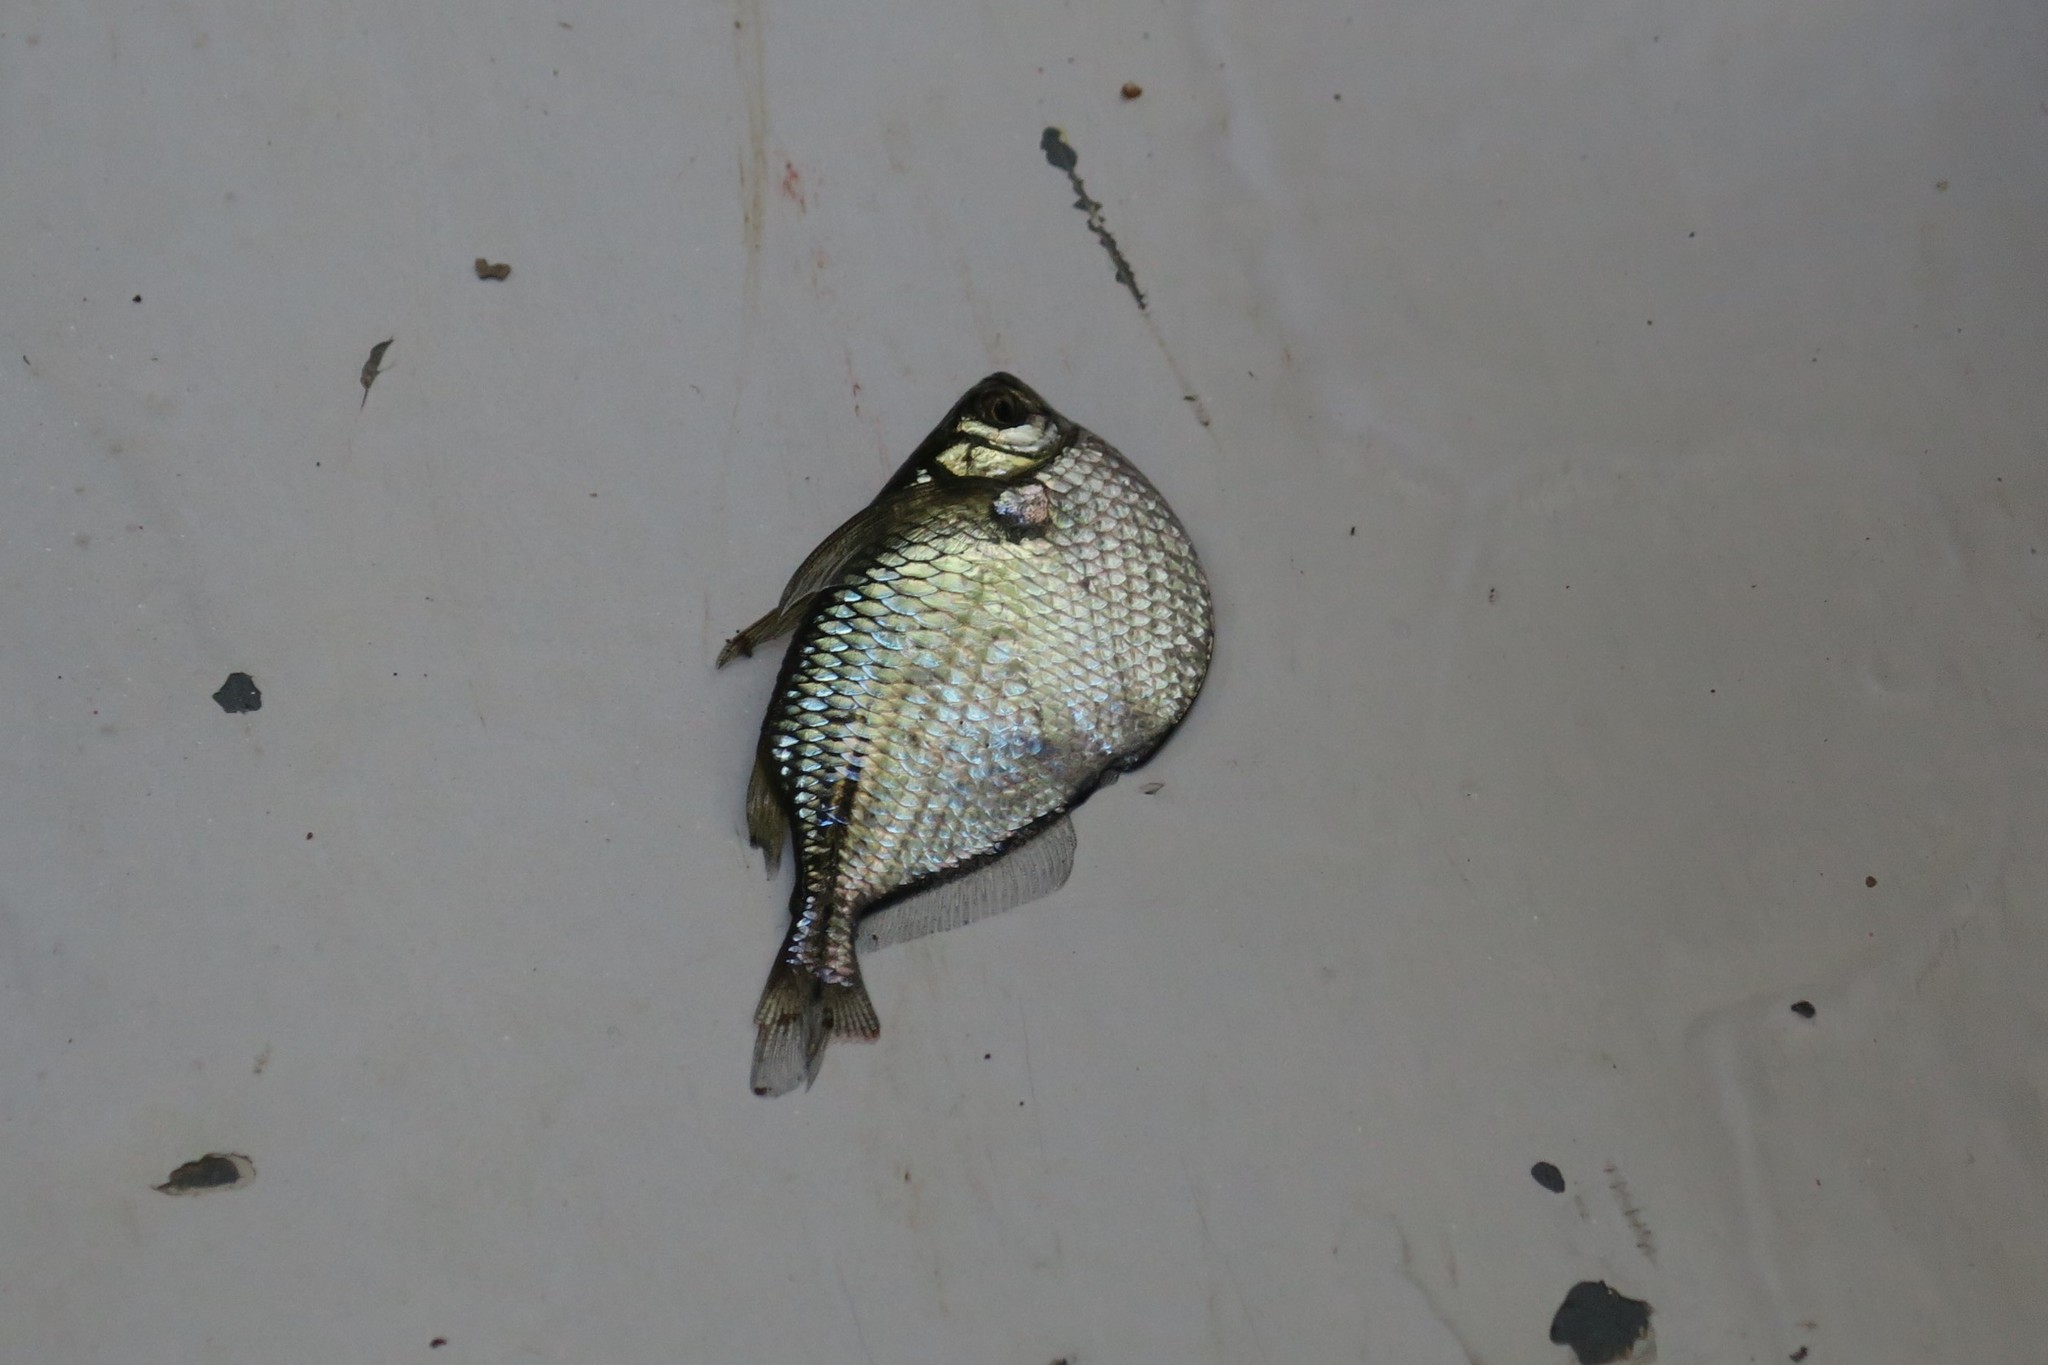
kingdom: Animalia
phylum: Chordata
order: Characiformes
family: Gasteropelecidae
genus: Gasteropelecus
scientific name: Gasteropelecus sternicla
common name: Common hatchetfish
